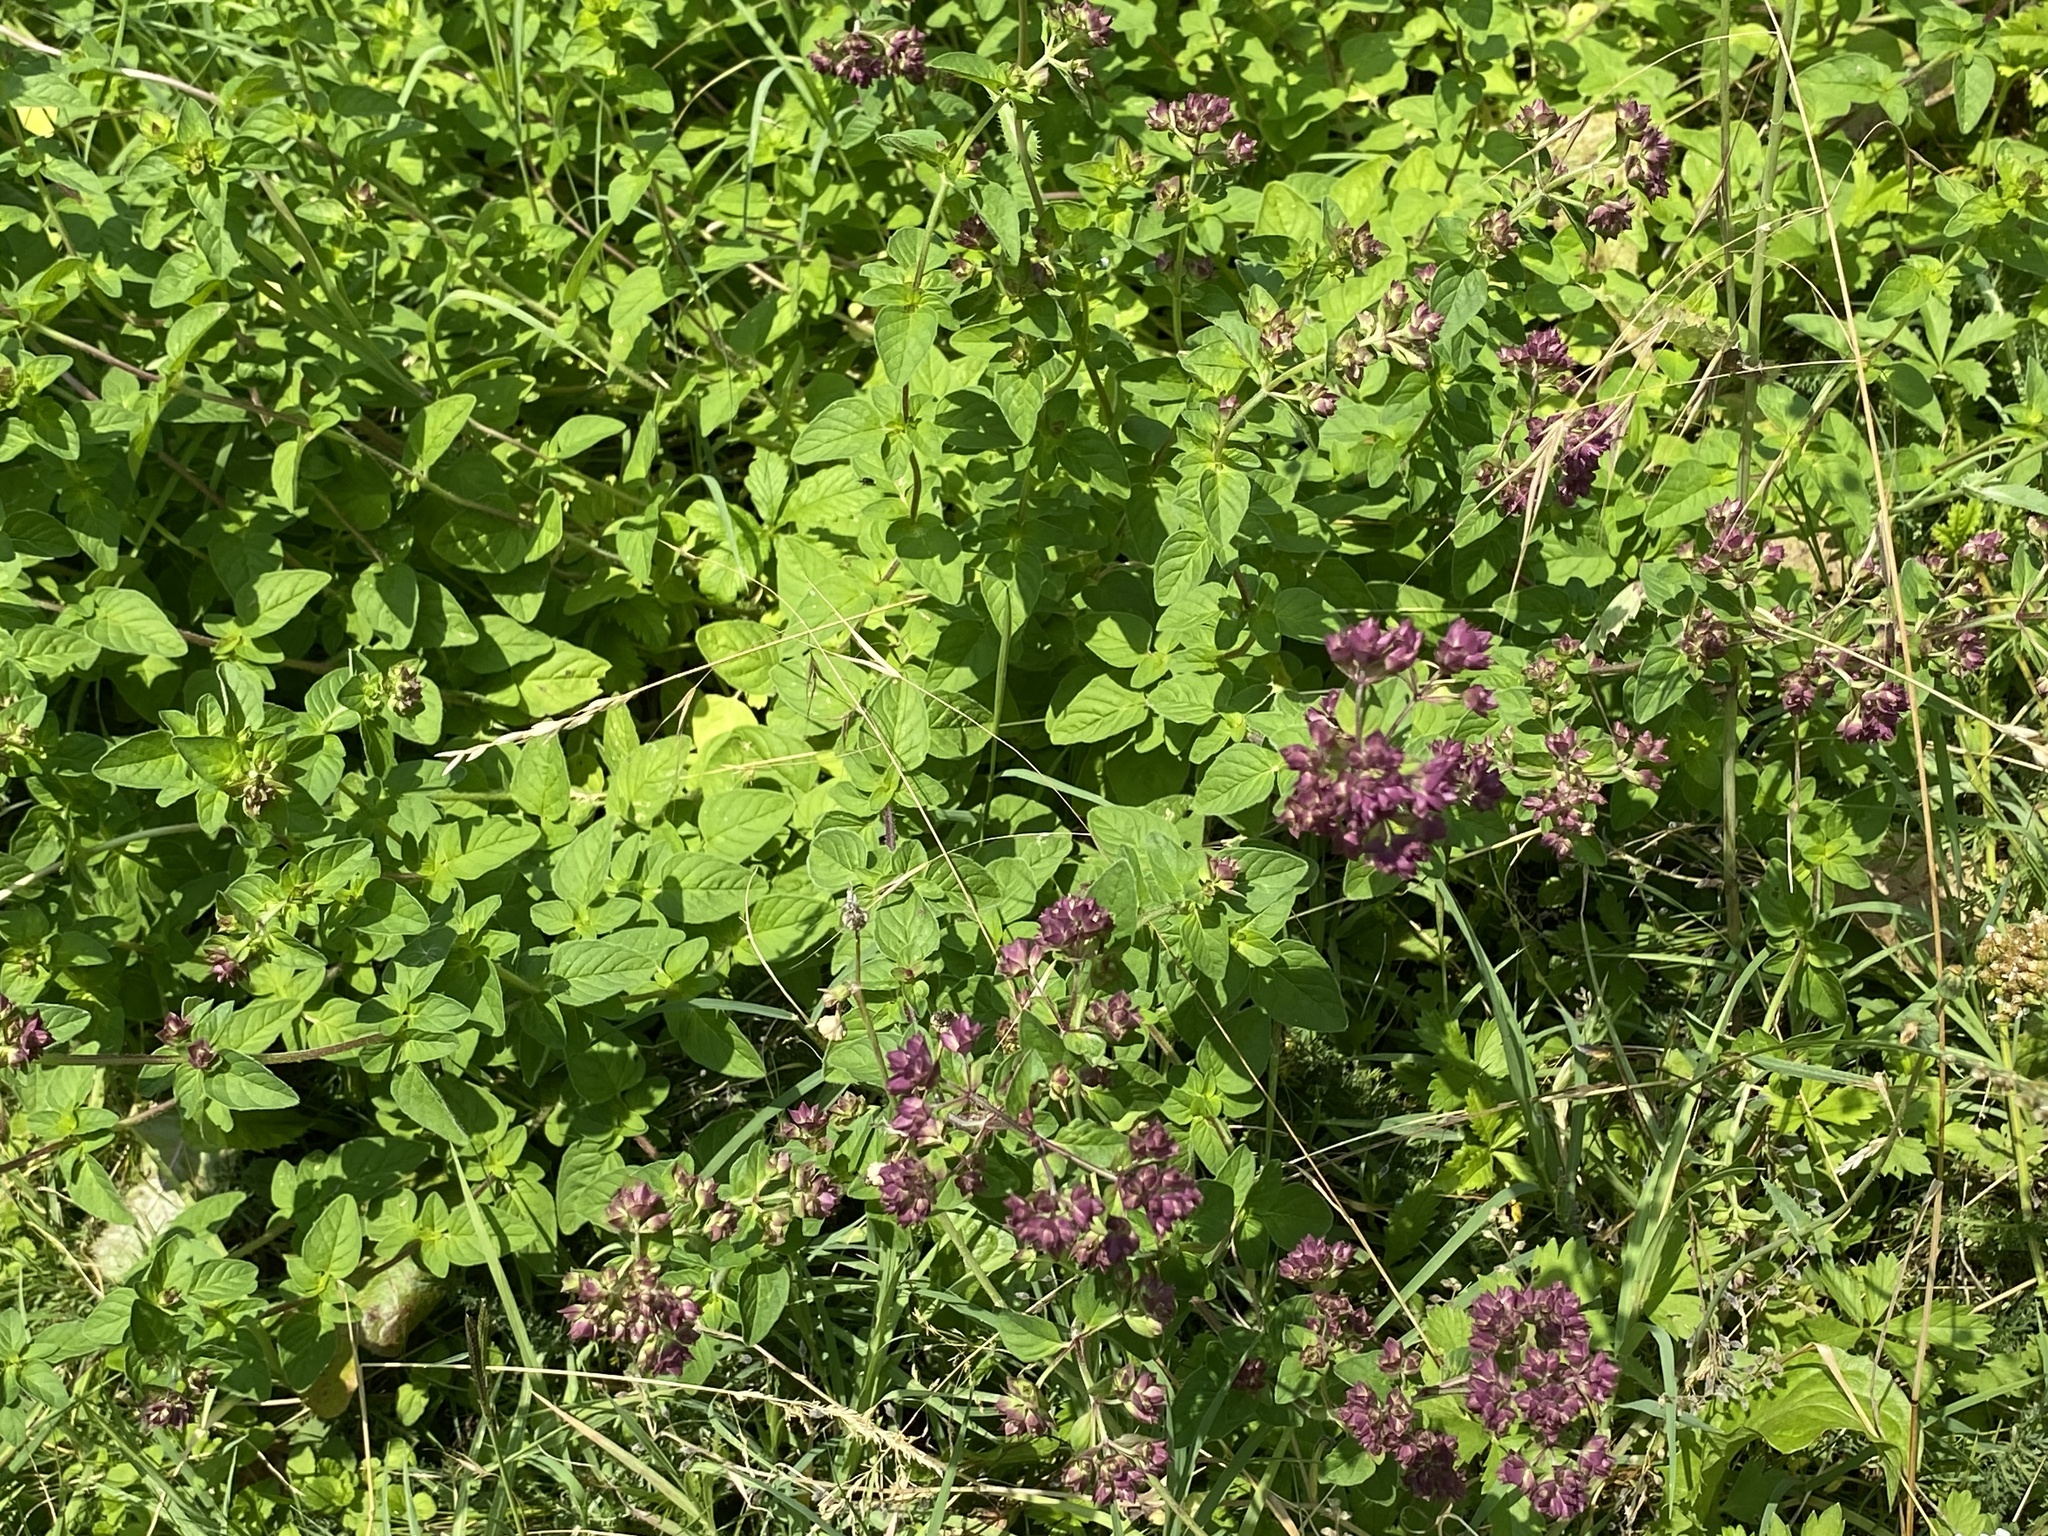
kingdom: Plantae
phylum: Tracheophyta
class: Magnoliopsida
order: Lamiales
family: Lamiaceae
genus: Origanum
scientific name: Origanum vulgare
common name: Wild marjoram
